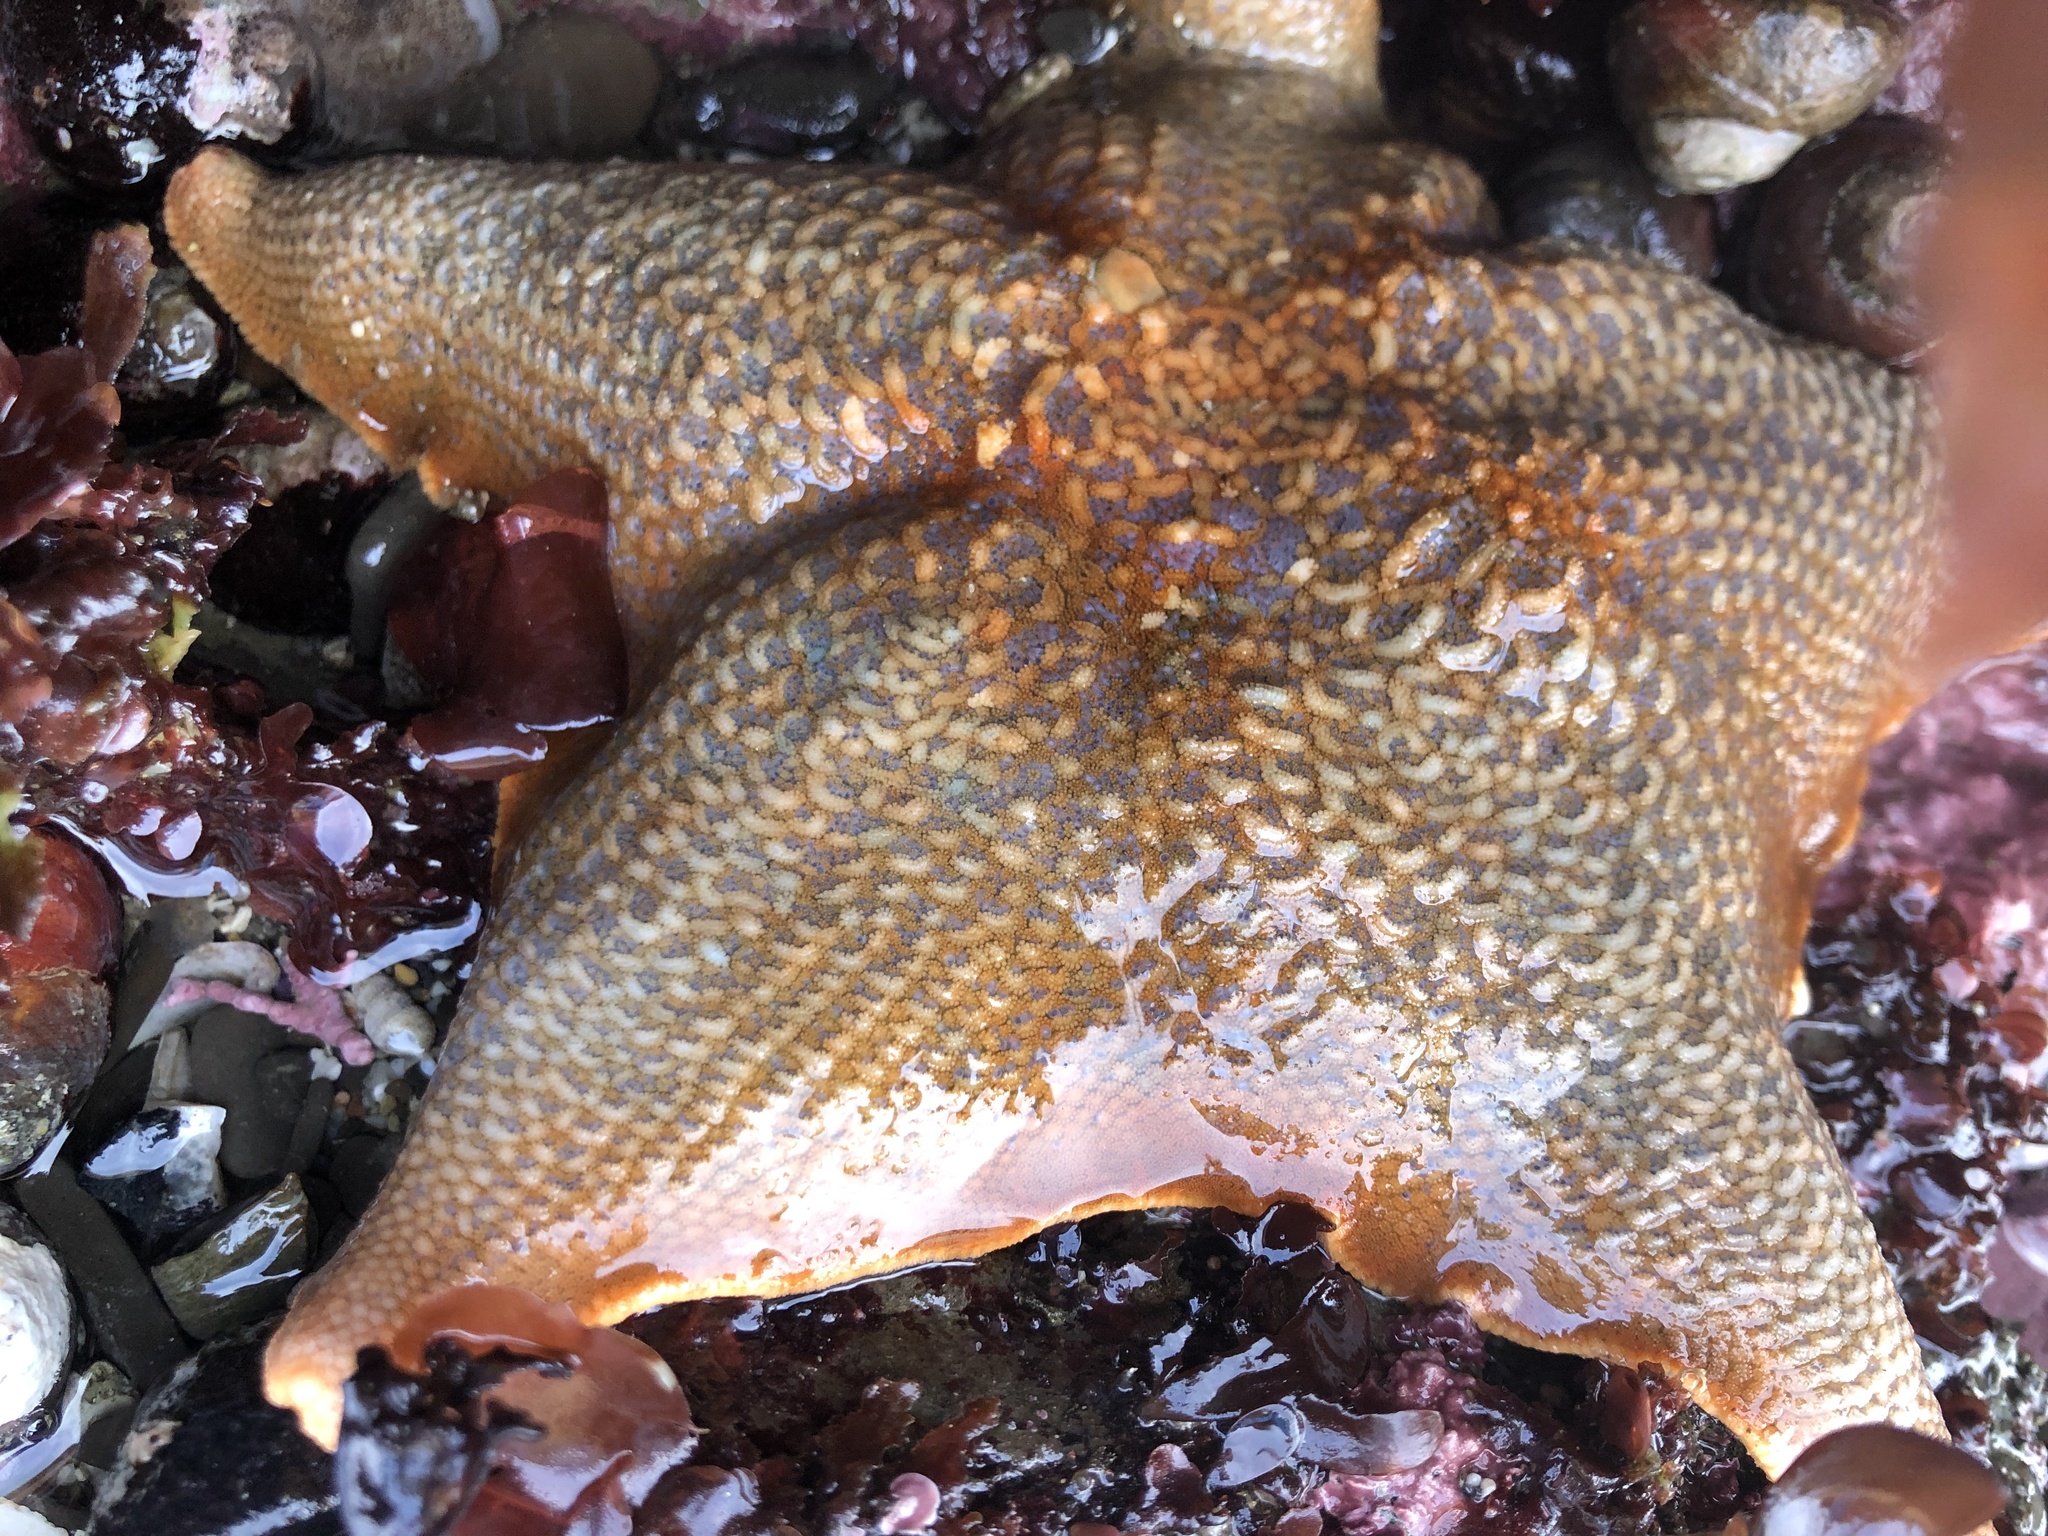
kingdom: Animalia
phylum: Echinodermata
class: Asteroidea
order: Valvatida
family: Asterinidae
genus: Patiria
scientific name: Patiria miniata
